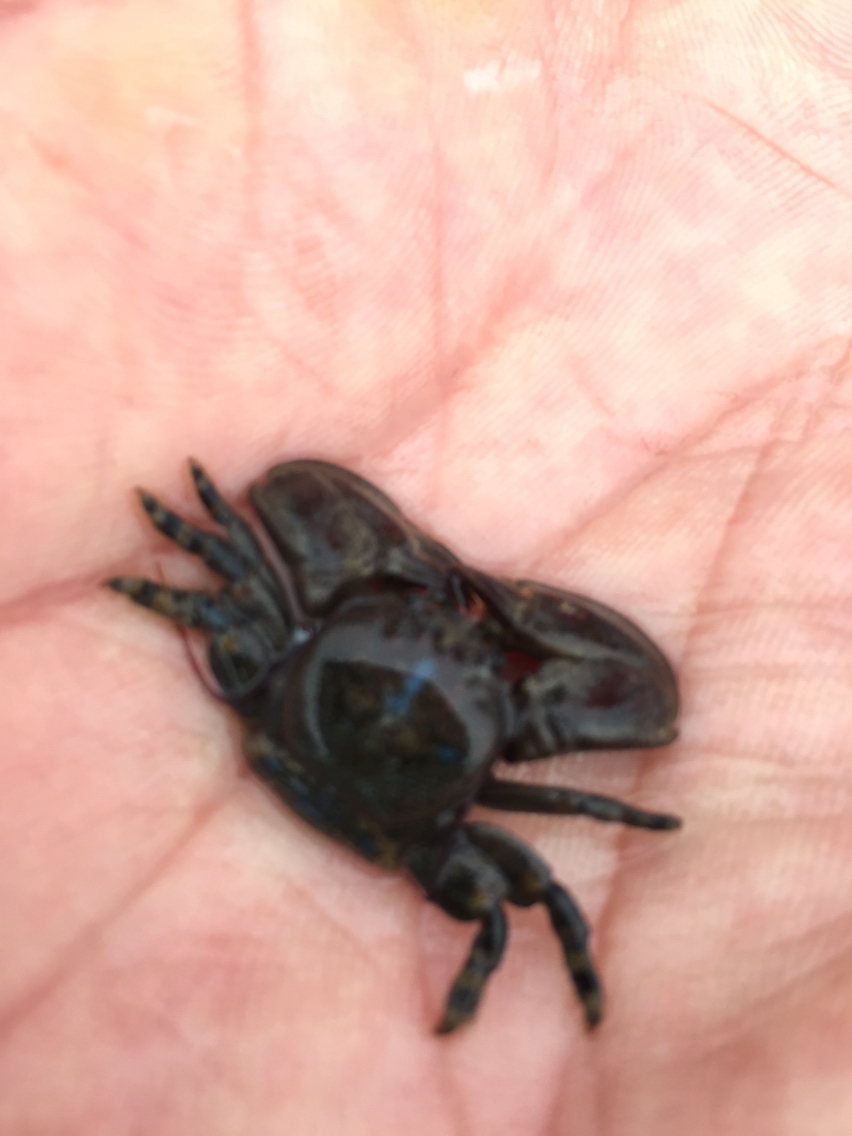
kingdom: Animalia
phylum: Arthropoda
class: Malacostraca
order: Decapoda
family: Porcellanidae
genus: Petrolisthes
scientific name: Petrolisthes cinctipes
